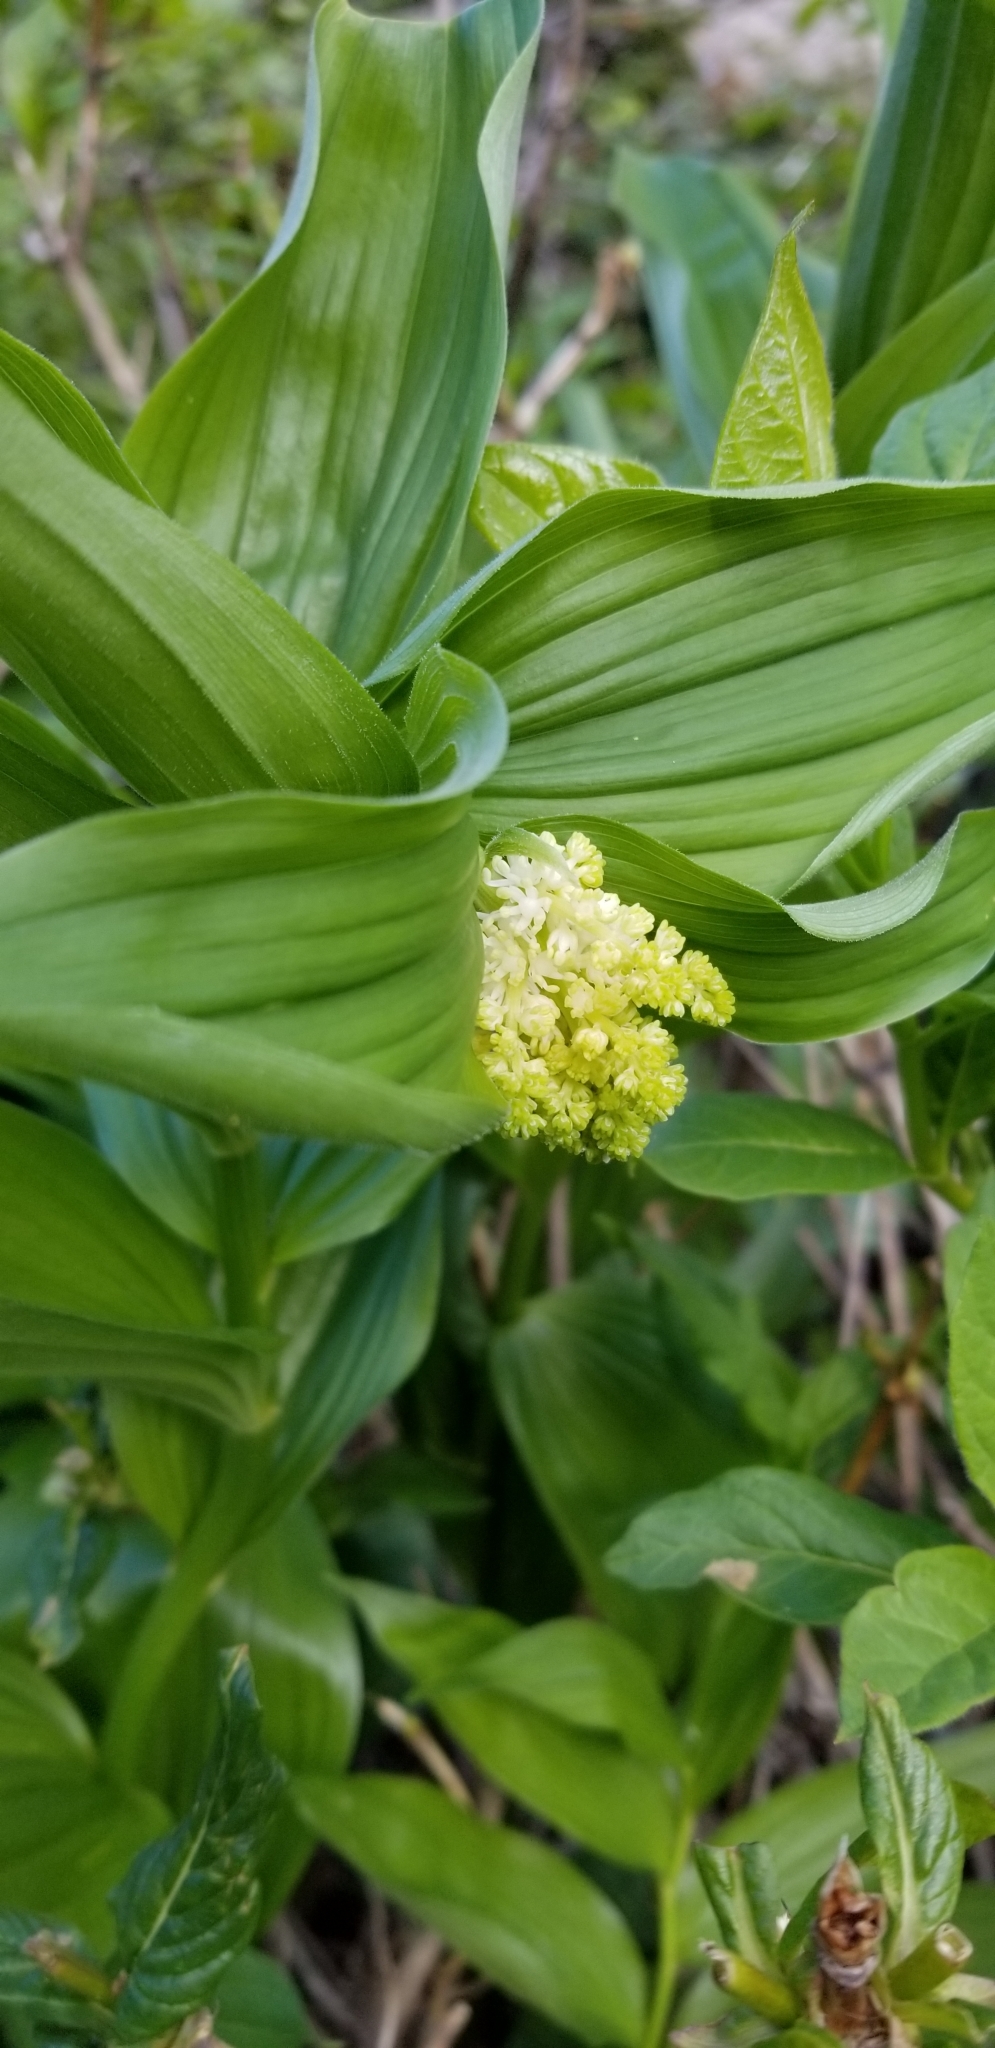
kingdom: Plantae
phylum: Tracheophyta
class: Liliopsida
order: Asparagales
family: Asparagaceae
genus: Maianthemum
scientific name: Maianthemum racemosum
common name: False spikenard
